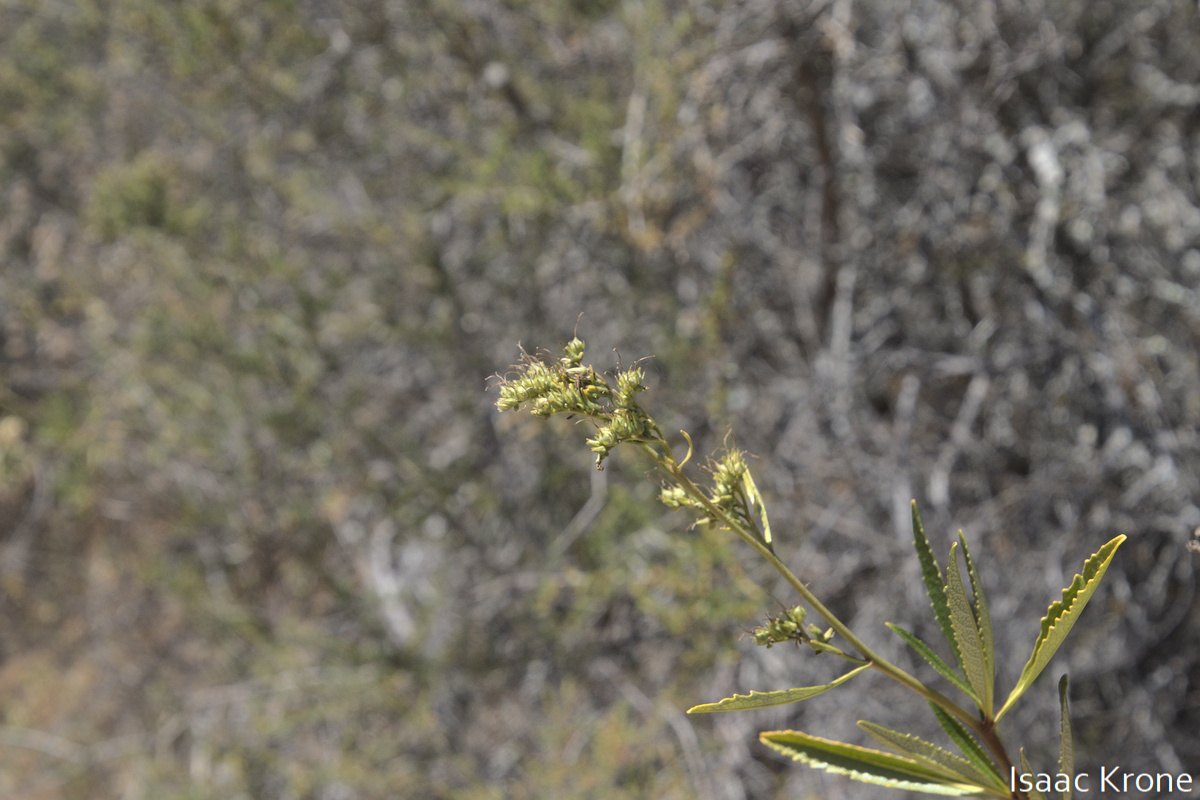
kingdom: Plantae
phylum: Tracheophyta
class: Magnoliopsida
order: Boraginales
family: Namaceae
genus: Eriodictyon
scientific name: Eriodictyon californicum
